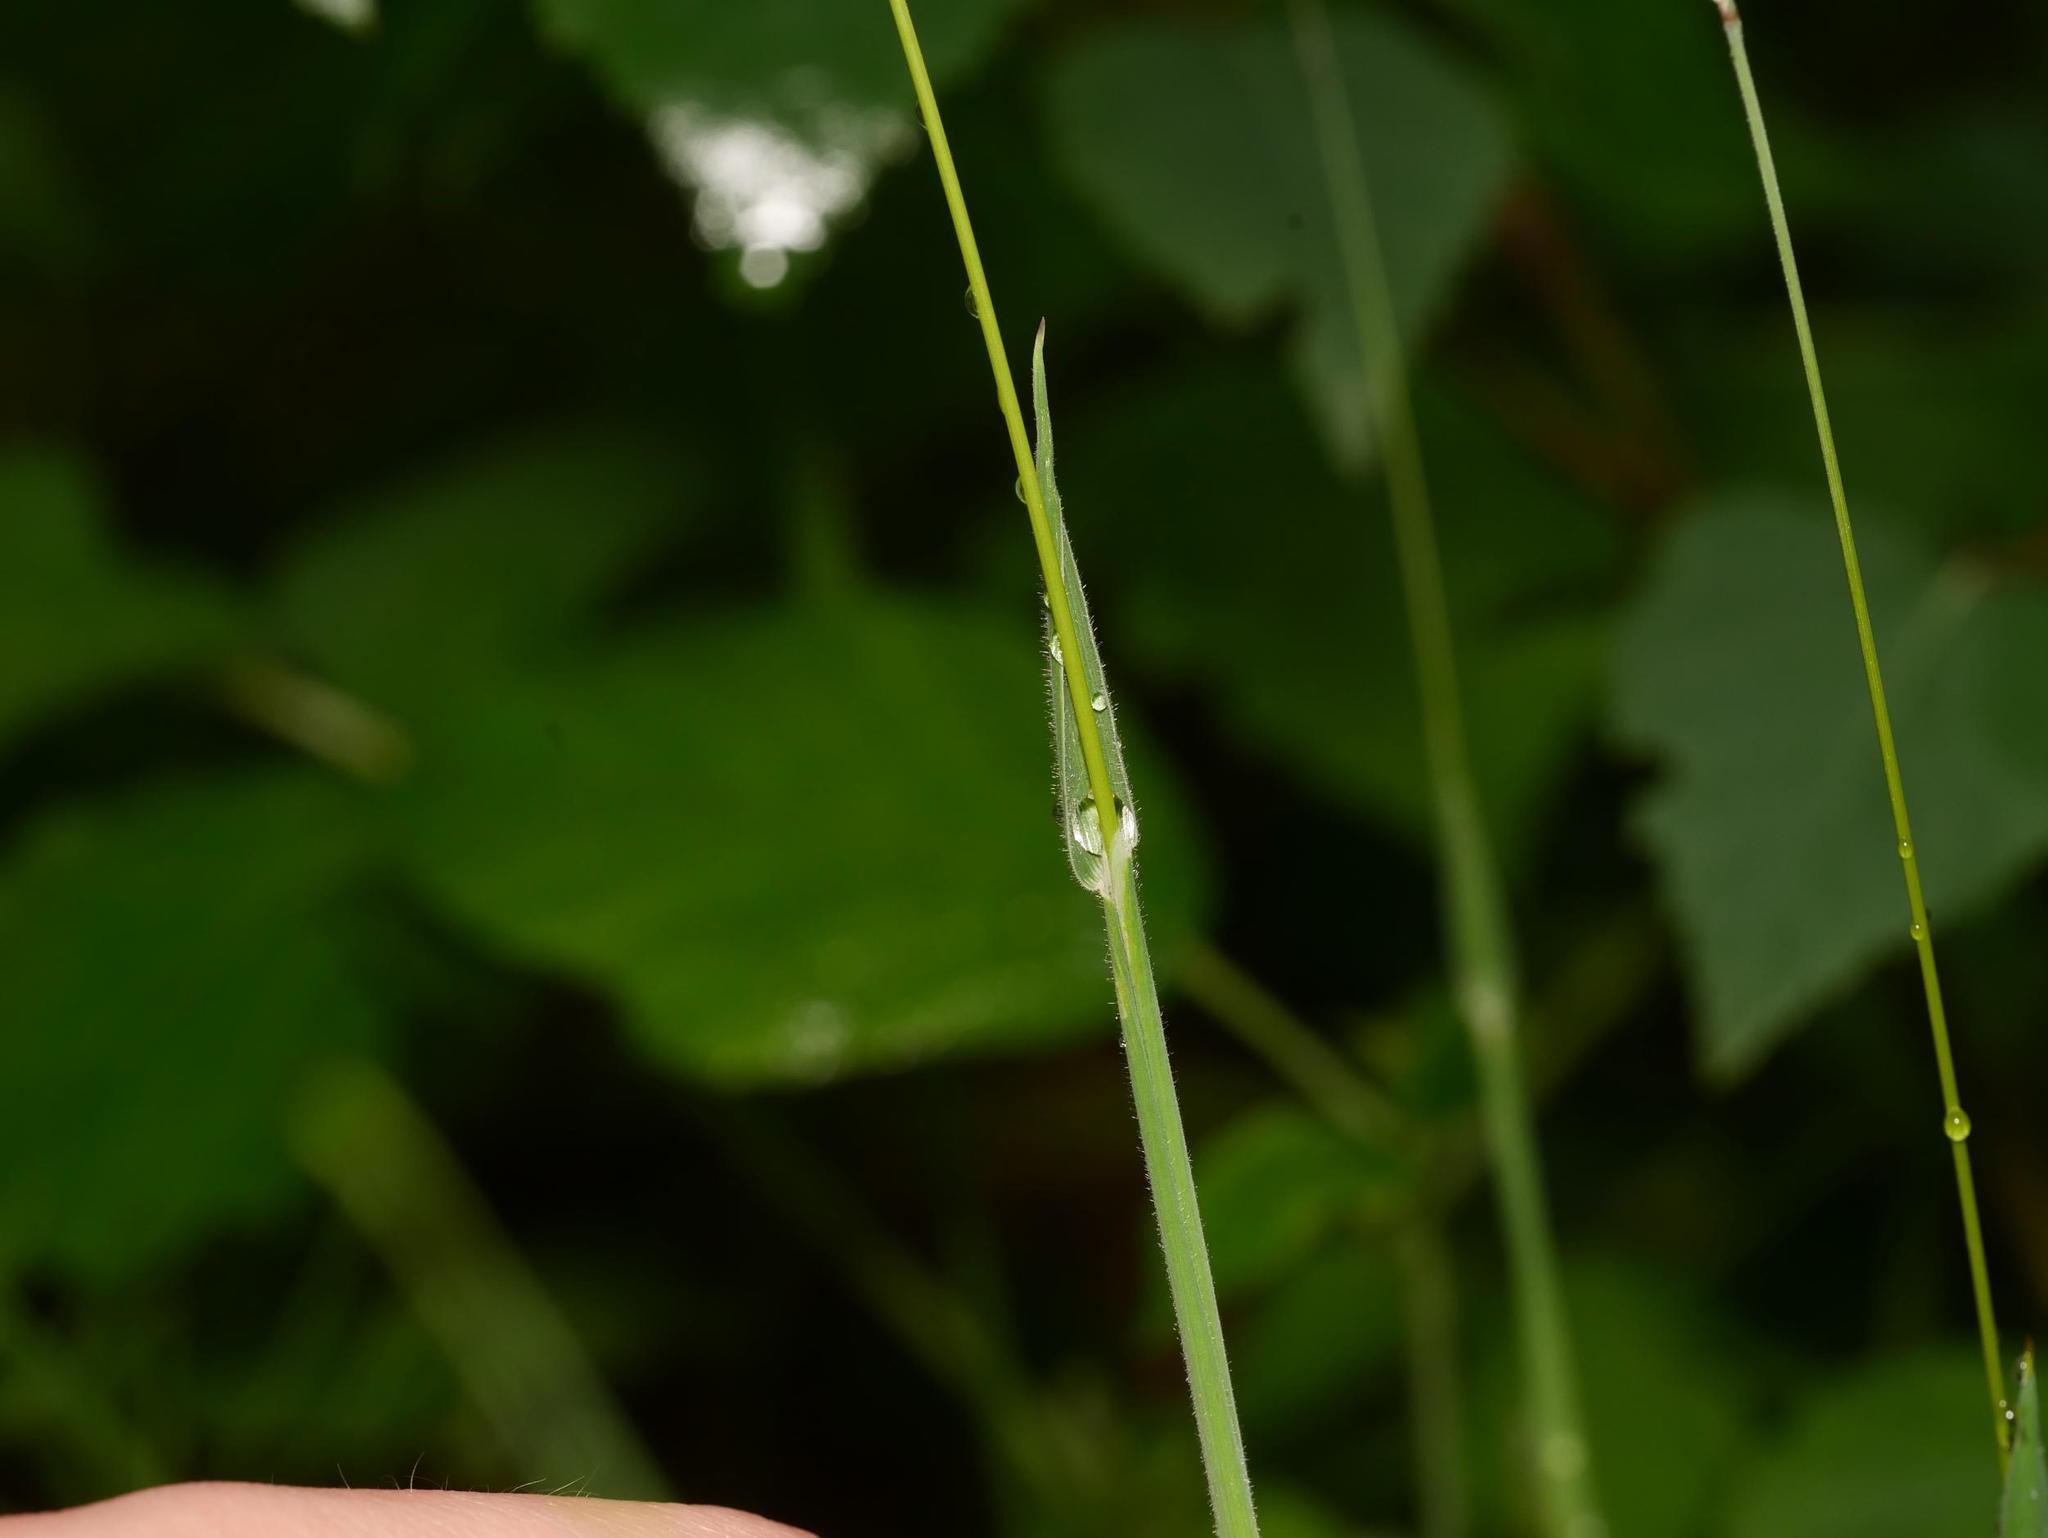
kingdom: Plantae
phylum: Tracheophyta
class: Liliopsida
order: Poales
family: Poaceae
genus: Holcus
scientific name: Holcus lanatus
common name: Yorkshire-fog
